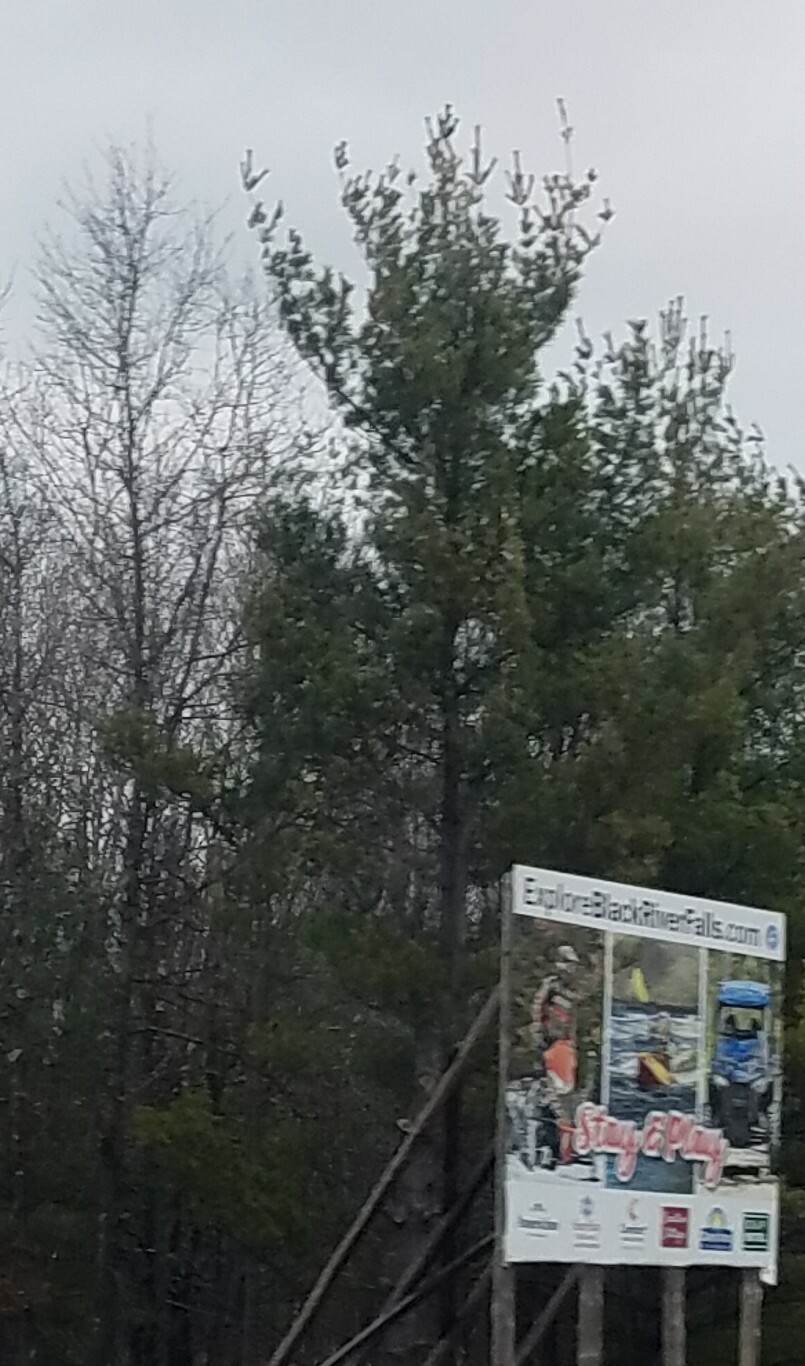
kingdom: Plantae
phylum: Tracheophyta
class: Pinopsida
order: Pinales
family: Pinaceae
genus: Pinus
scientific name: Pinus strobus
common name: Weymouth pine
